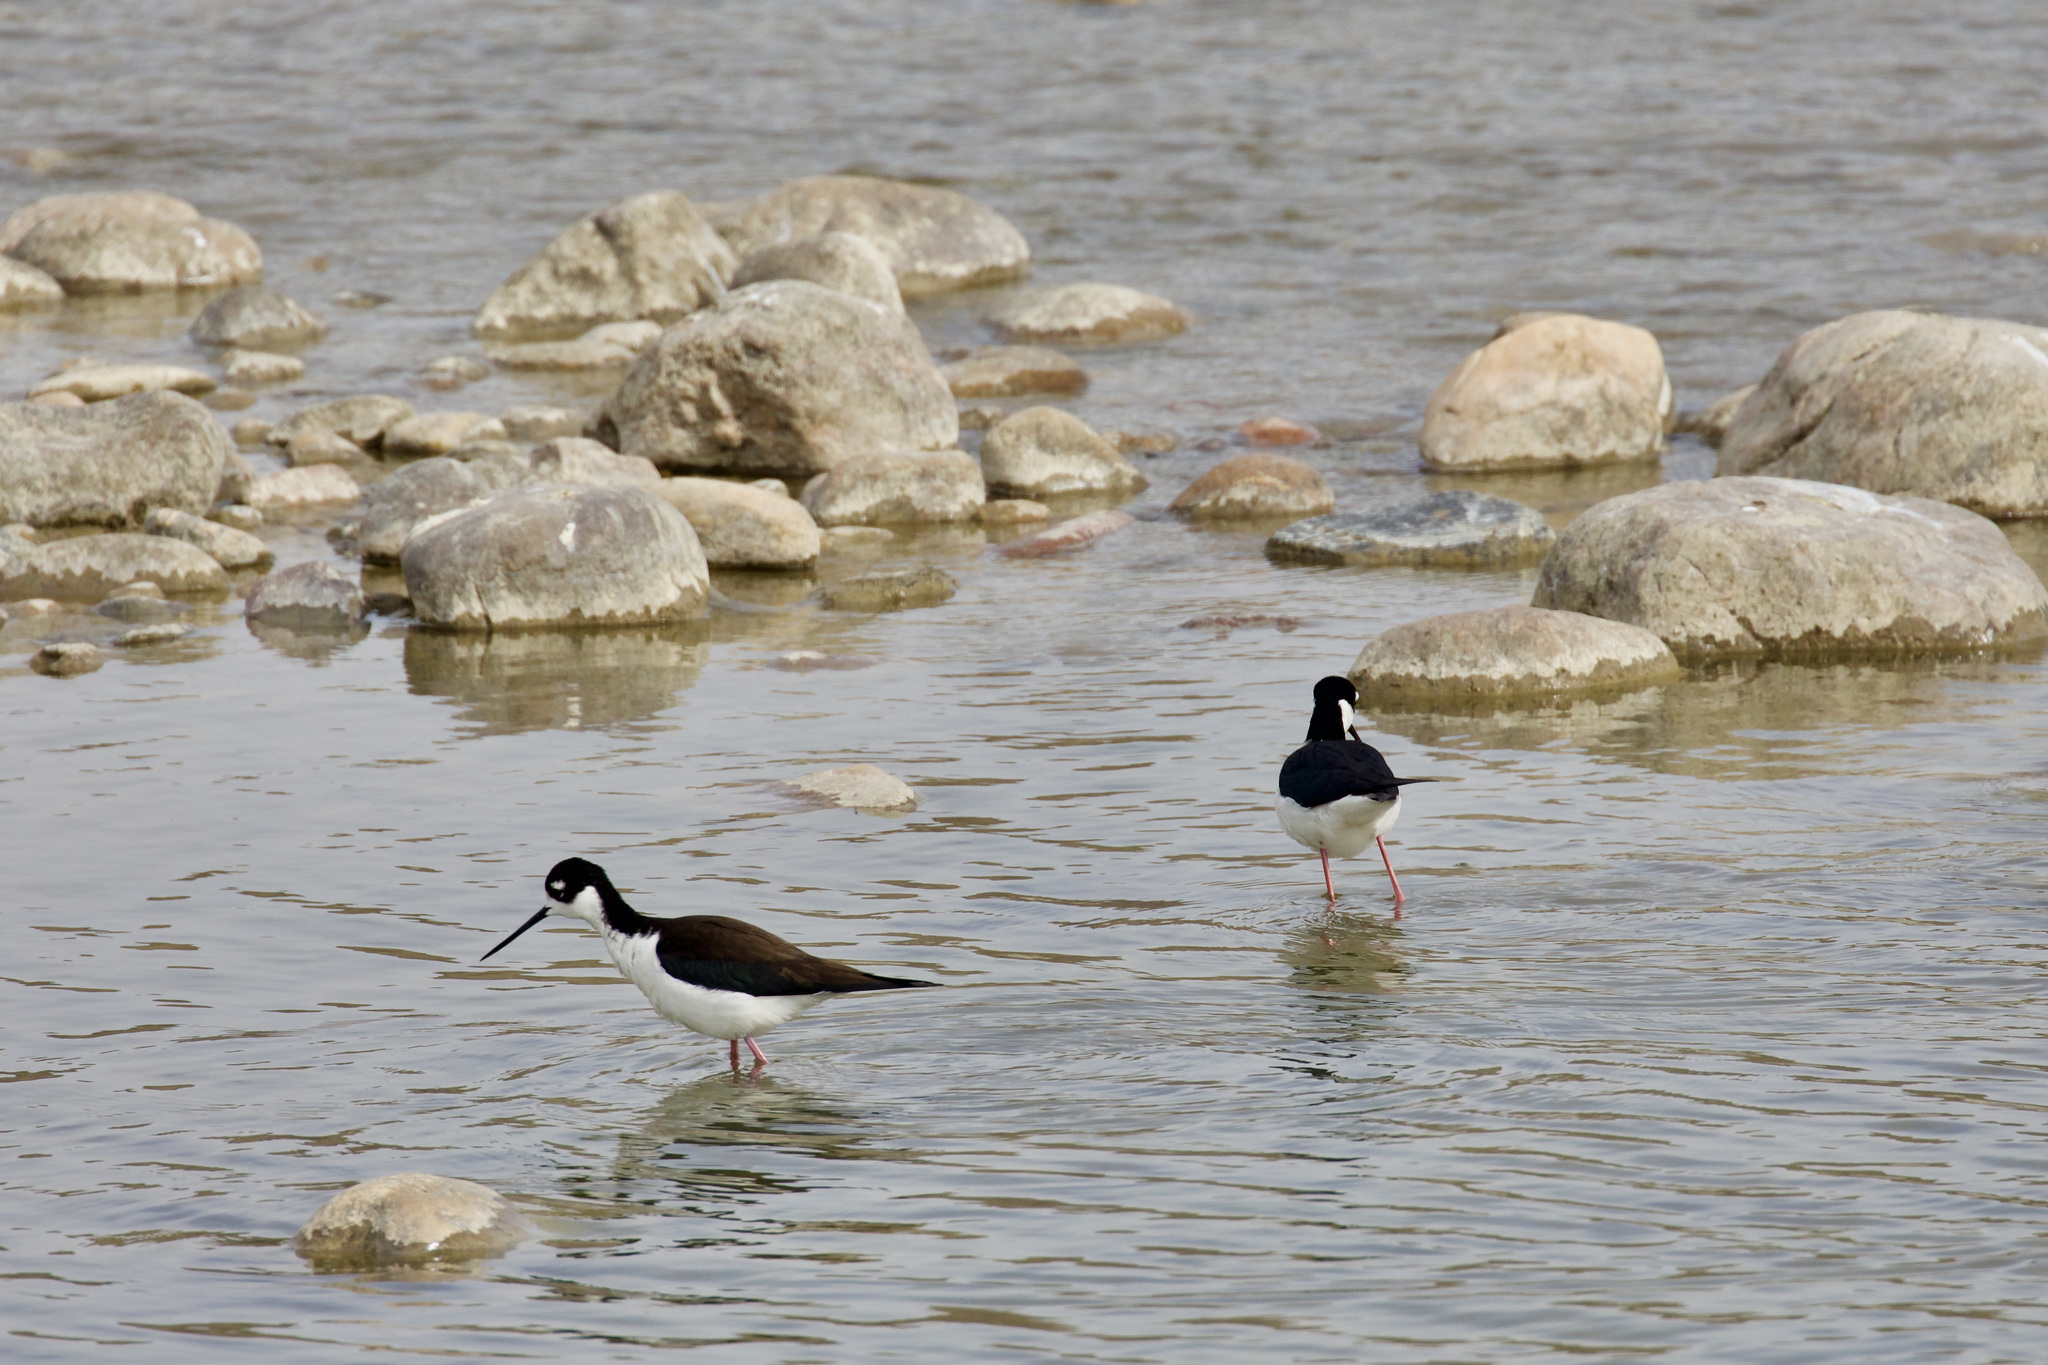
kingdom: Animalia
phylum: Chordata
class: Aves
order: Charadriiformes
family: Recurvirostridae
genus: Himantopus
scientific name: Himantopus mexicanus
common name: Black-necked stilt
